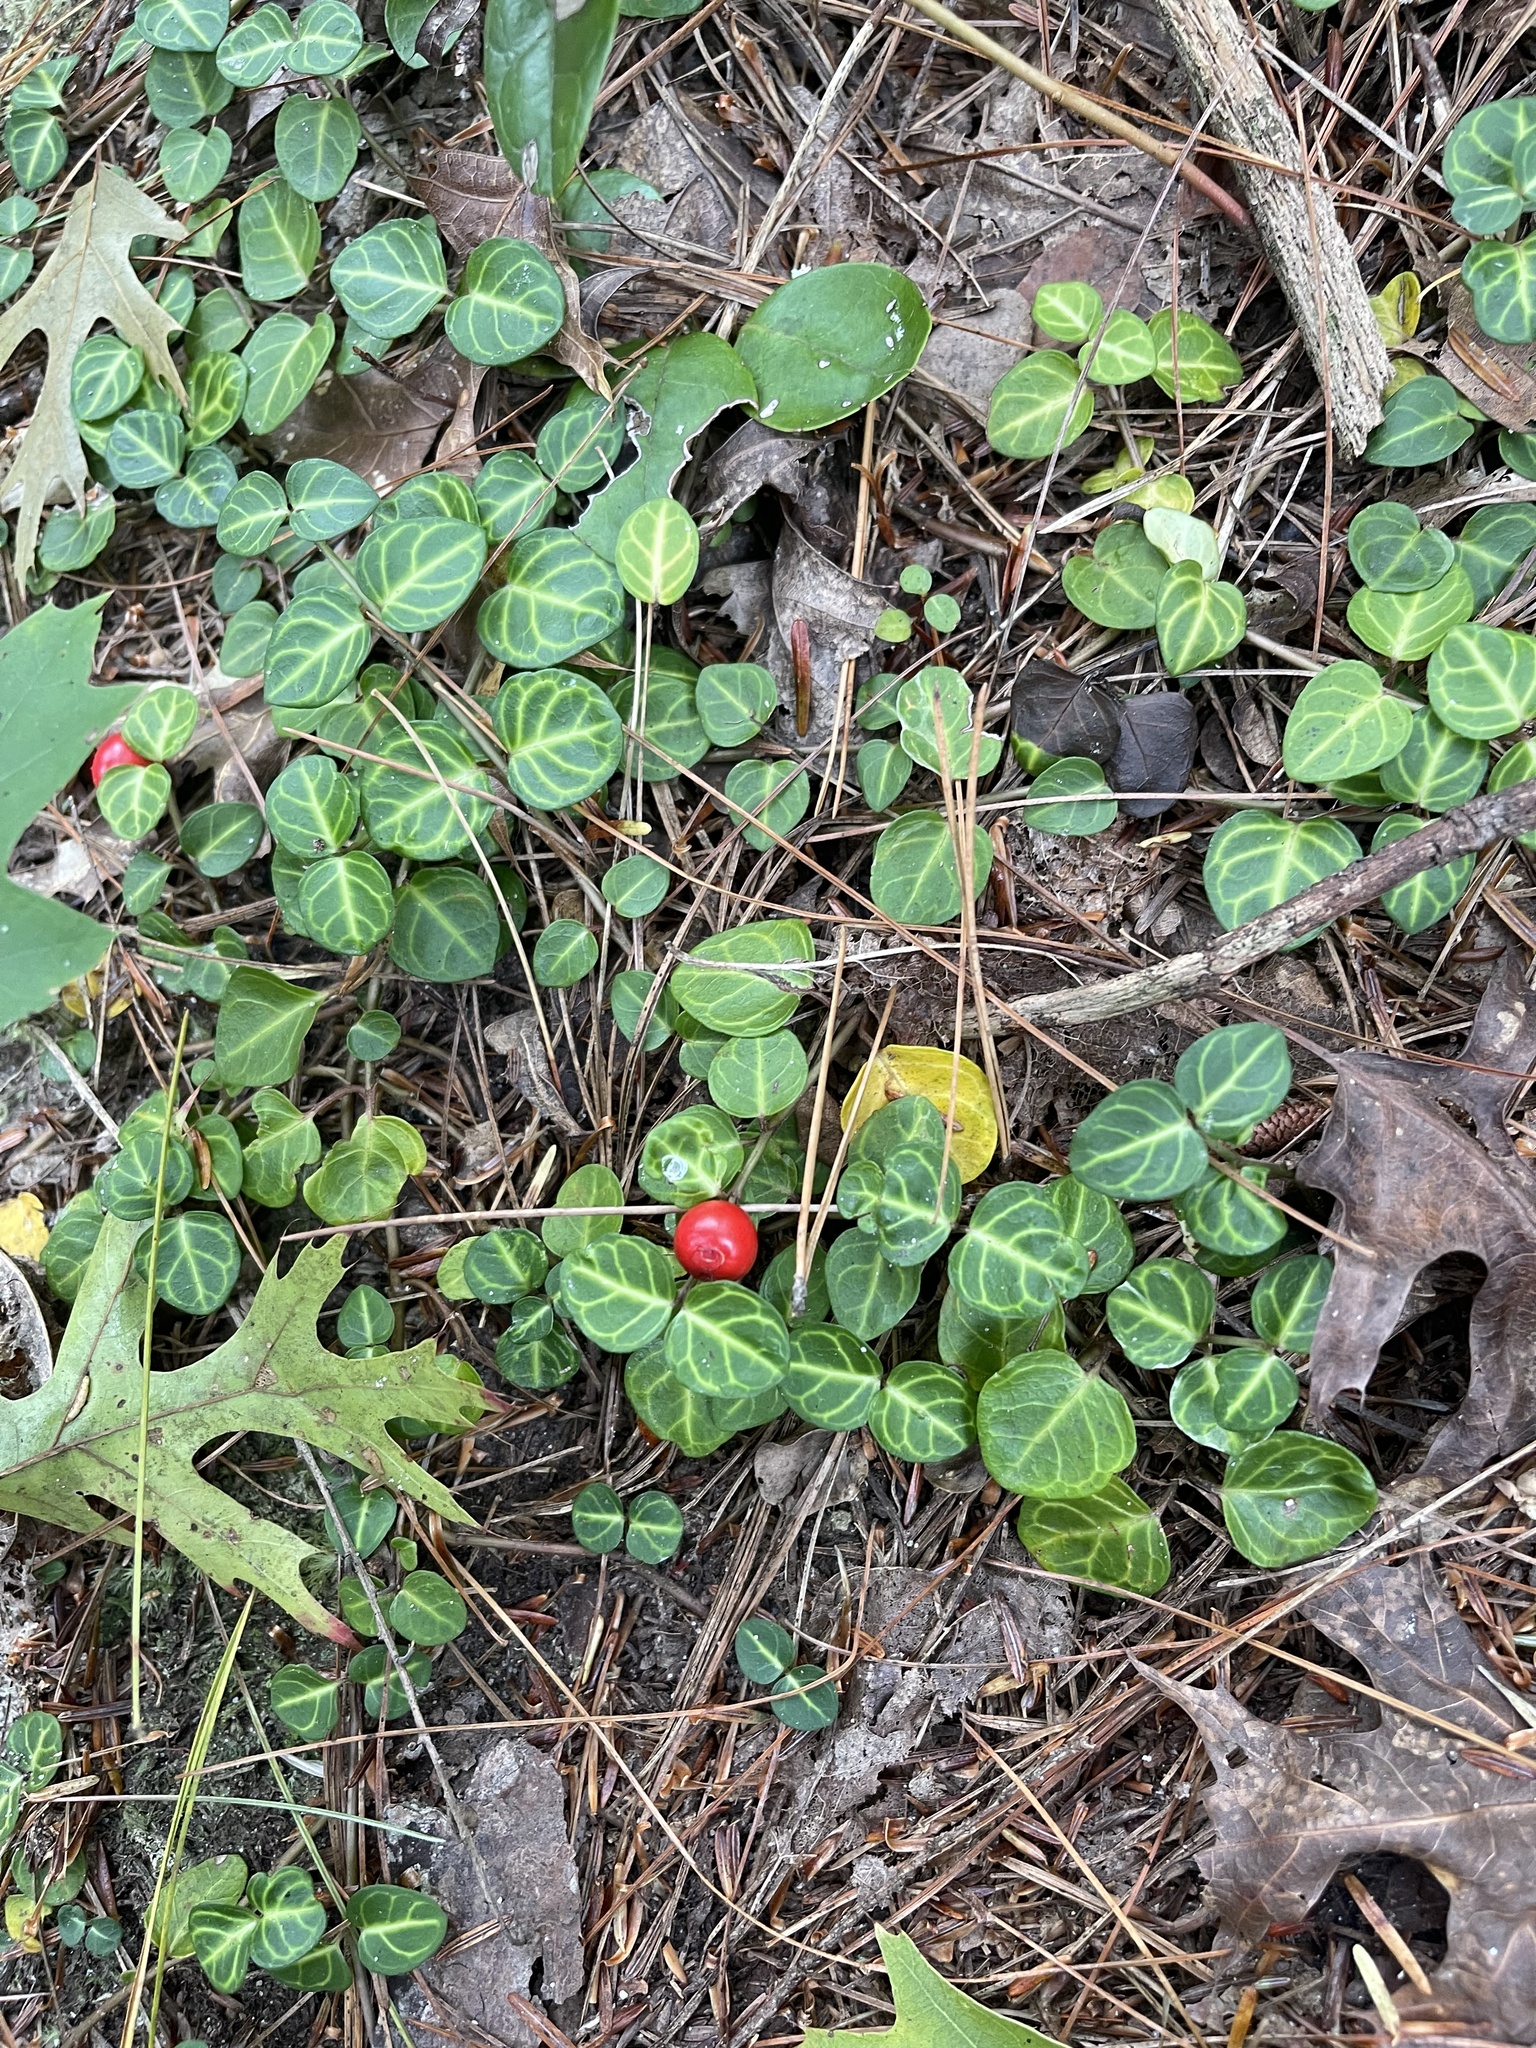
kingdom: Plantae
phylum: Tracheophyta
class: Magnoliopsida
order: Gentianales
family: Rubiaceae
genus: Mitchella
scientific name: Mitchella repens
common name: Partridge-berry
